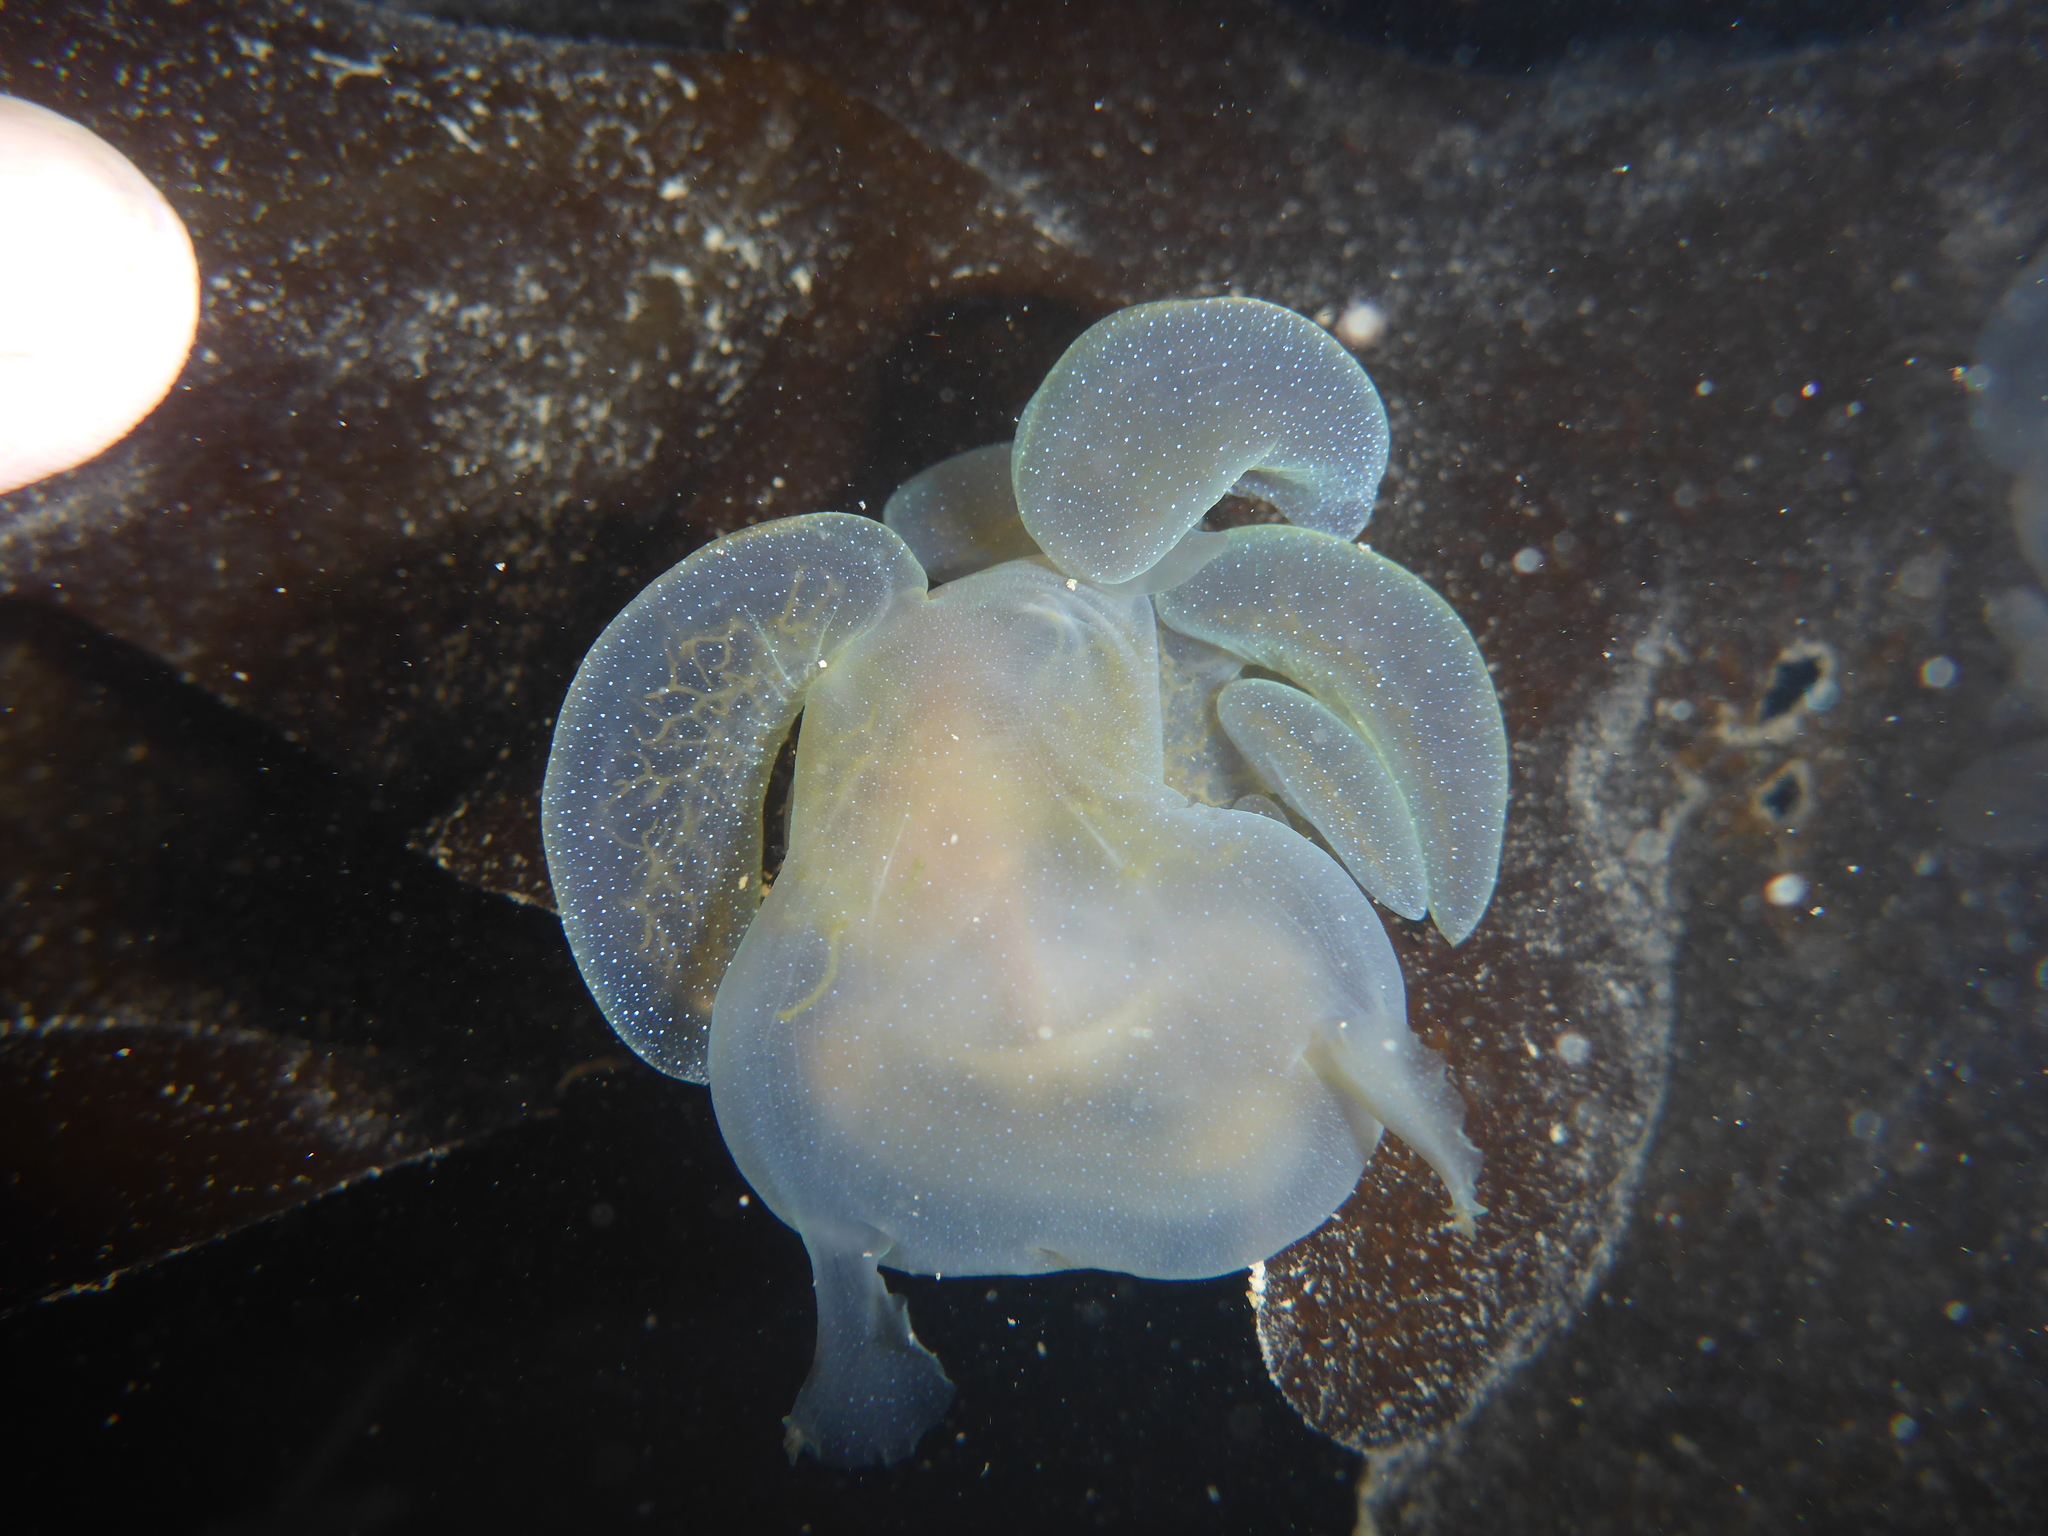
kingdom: Animalia
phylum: Mollusca
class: Gastropoda
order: Nudibranchia
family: Tethydidae
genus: Melibe
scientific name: Melibe leonina
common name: Lion nudibranch
